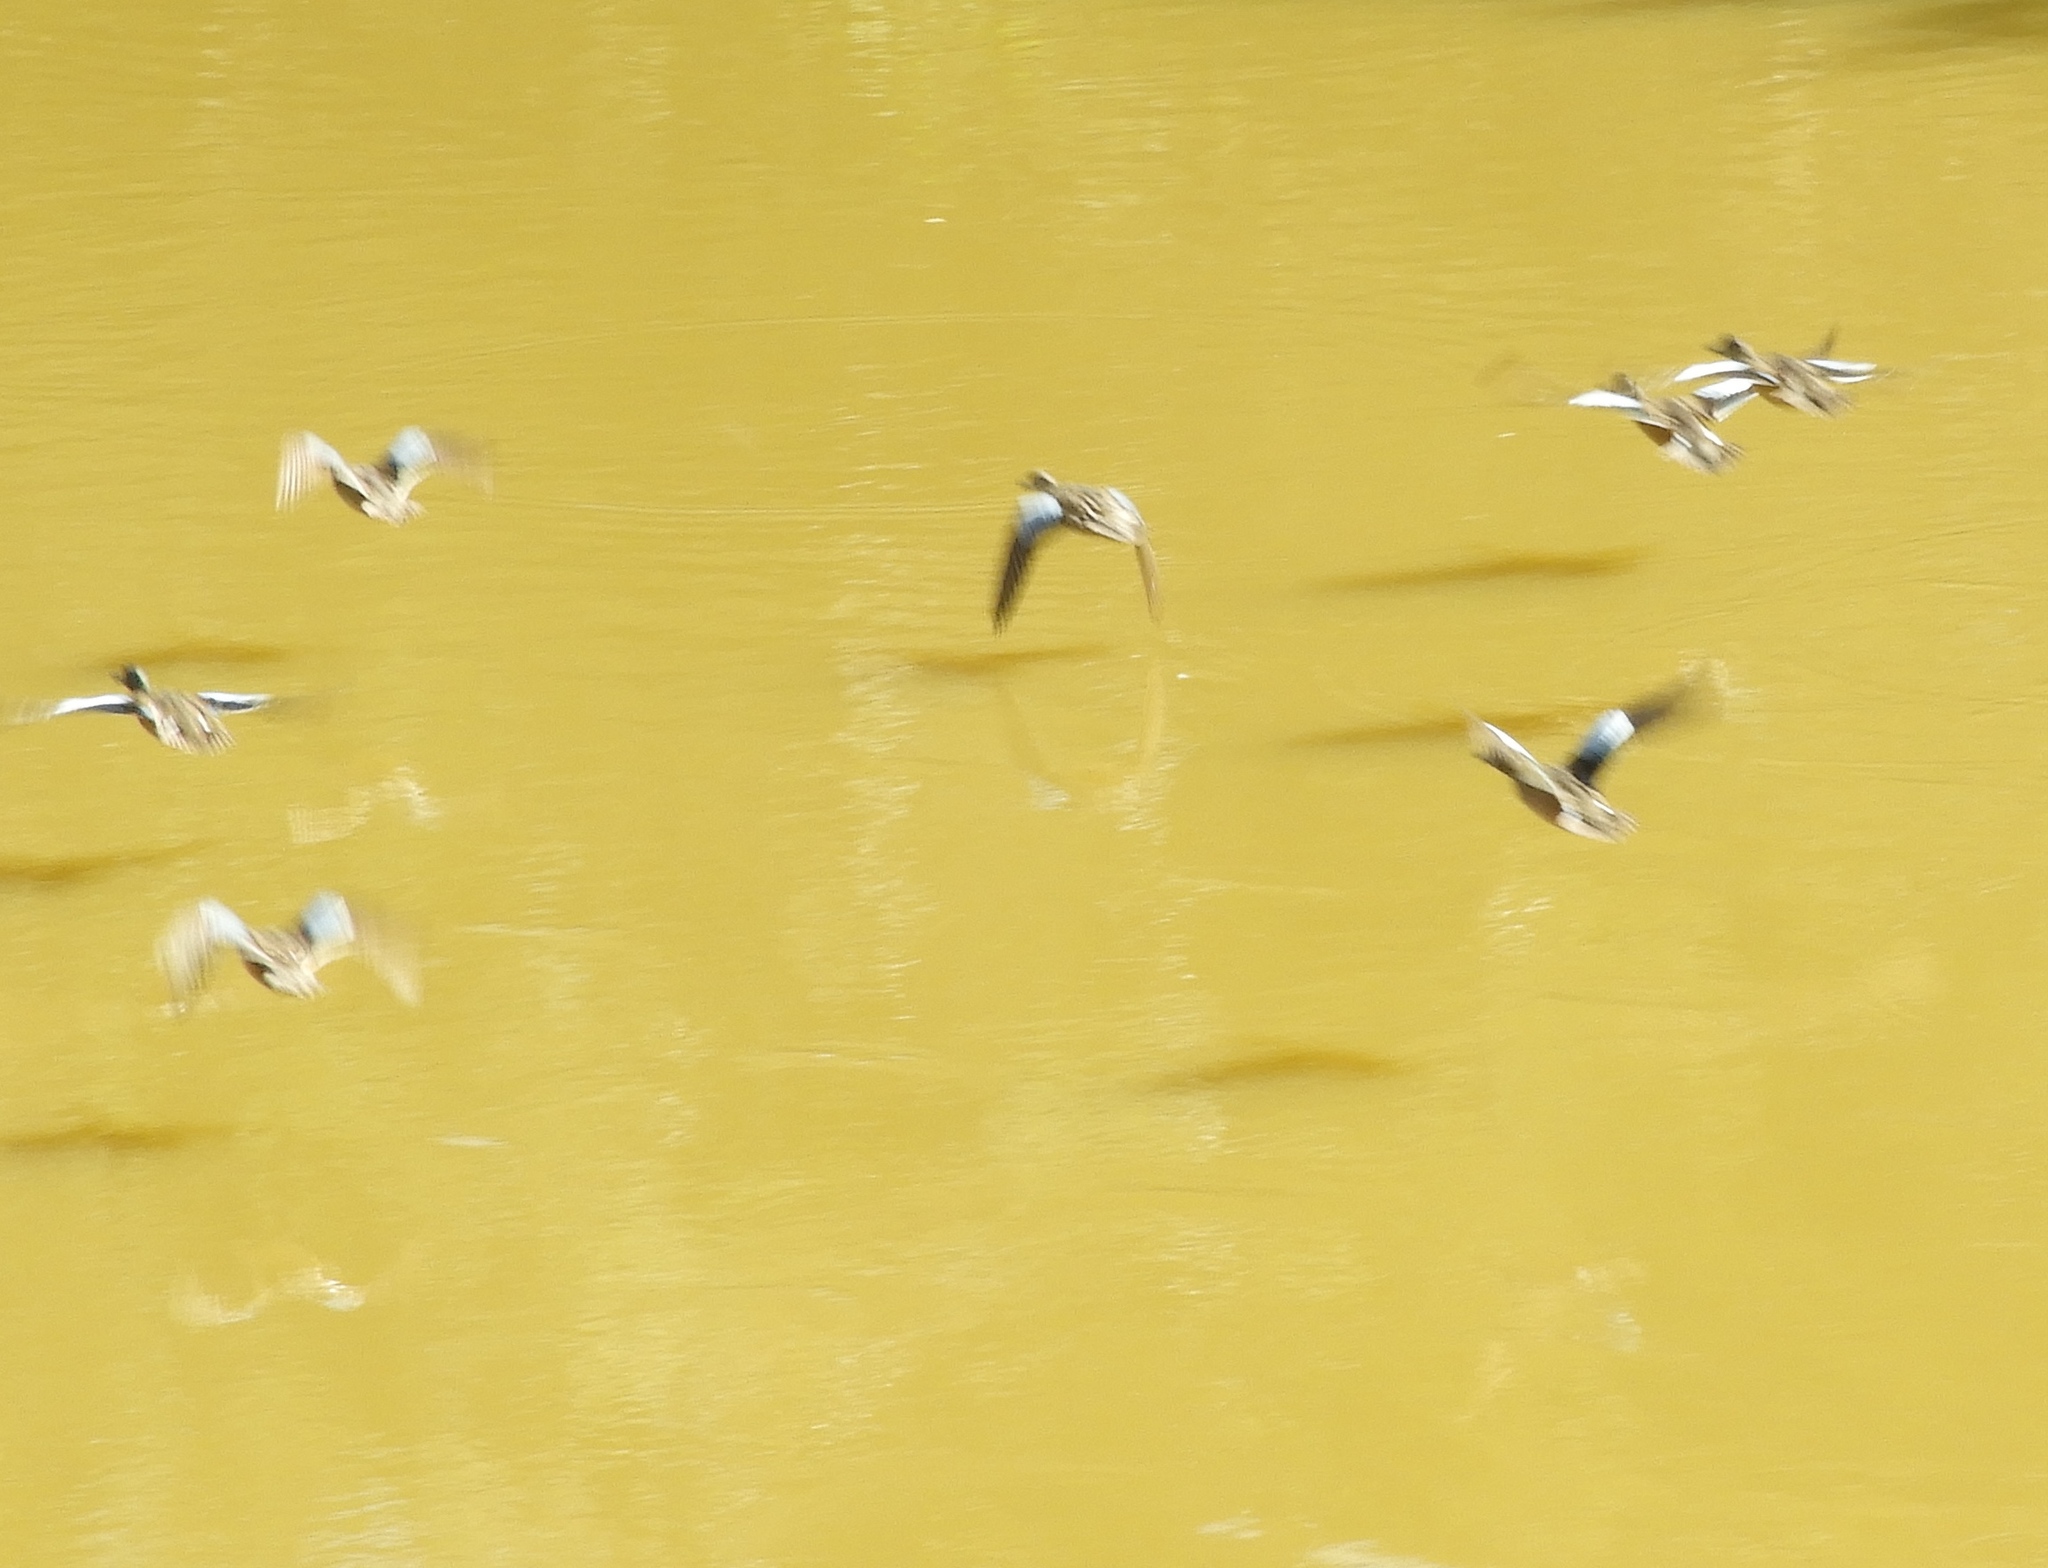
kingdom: Animalia
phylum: Chordata
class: Aves
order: Anseriformes
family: Anatidae
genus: Spatula
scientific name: Spatula discors
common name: Blue-winged teal
